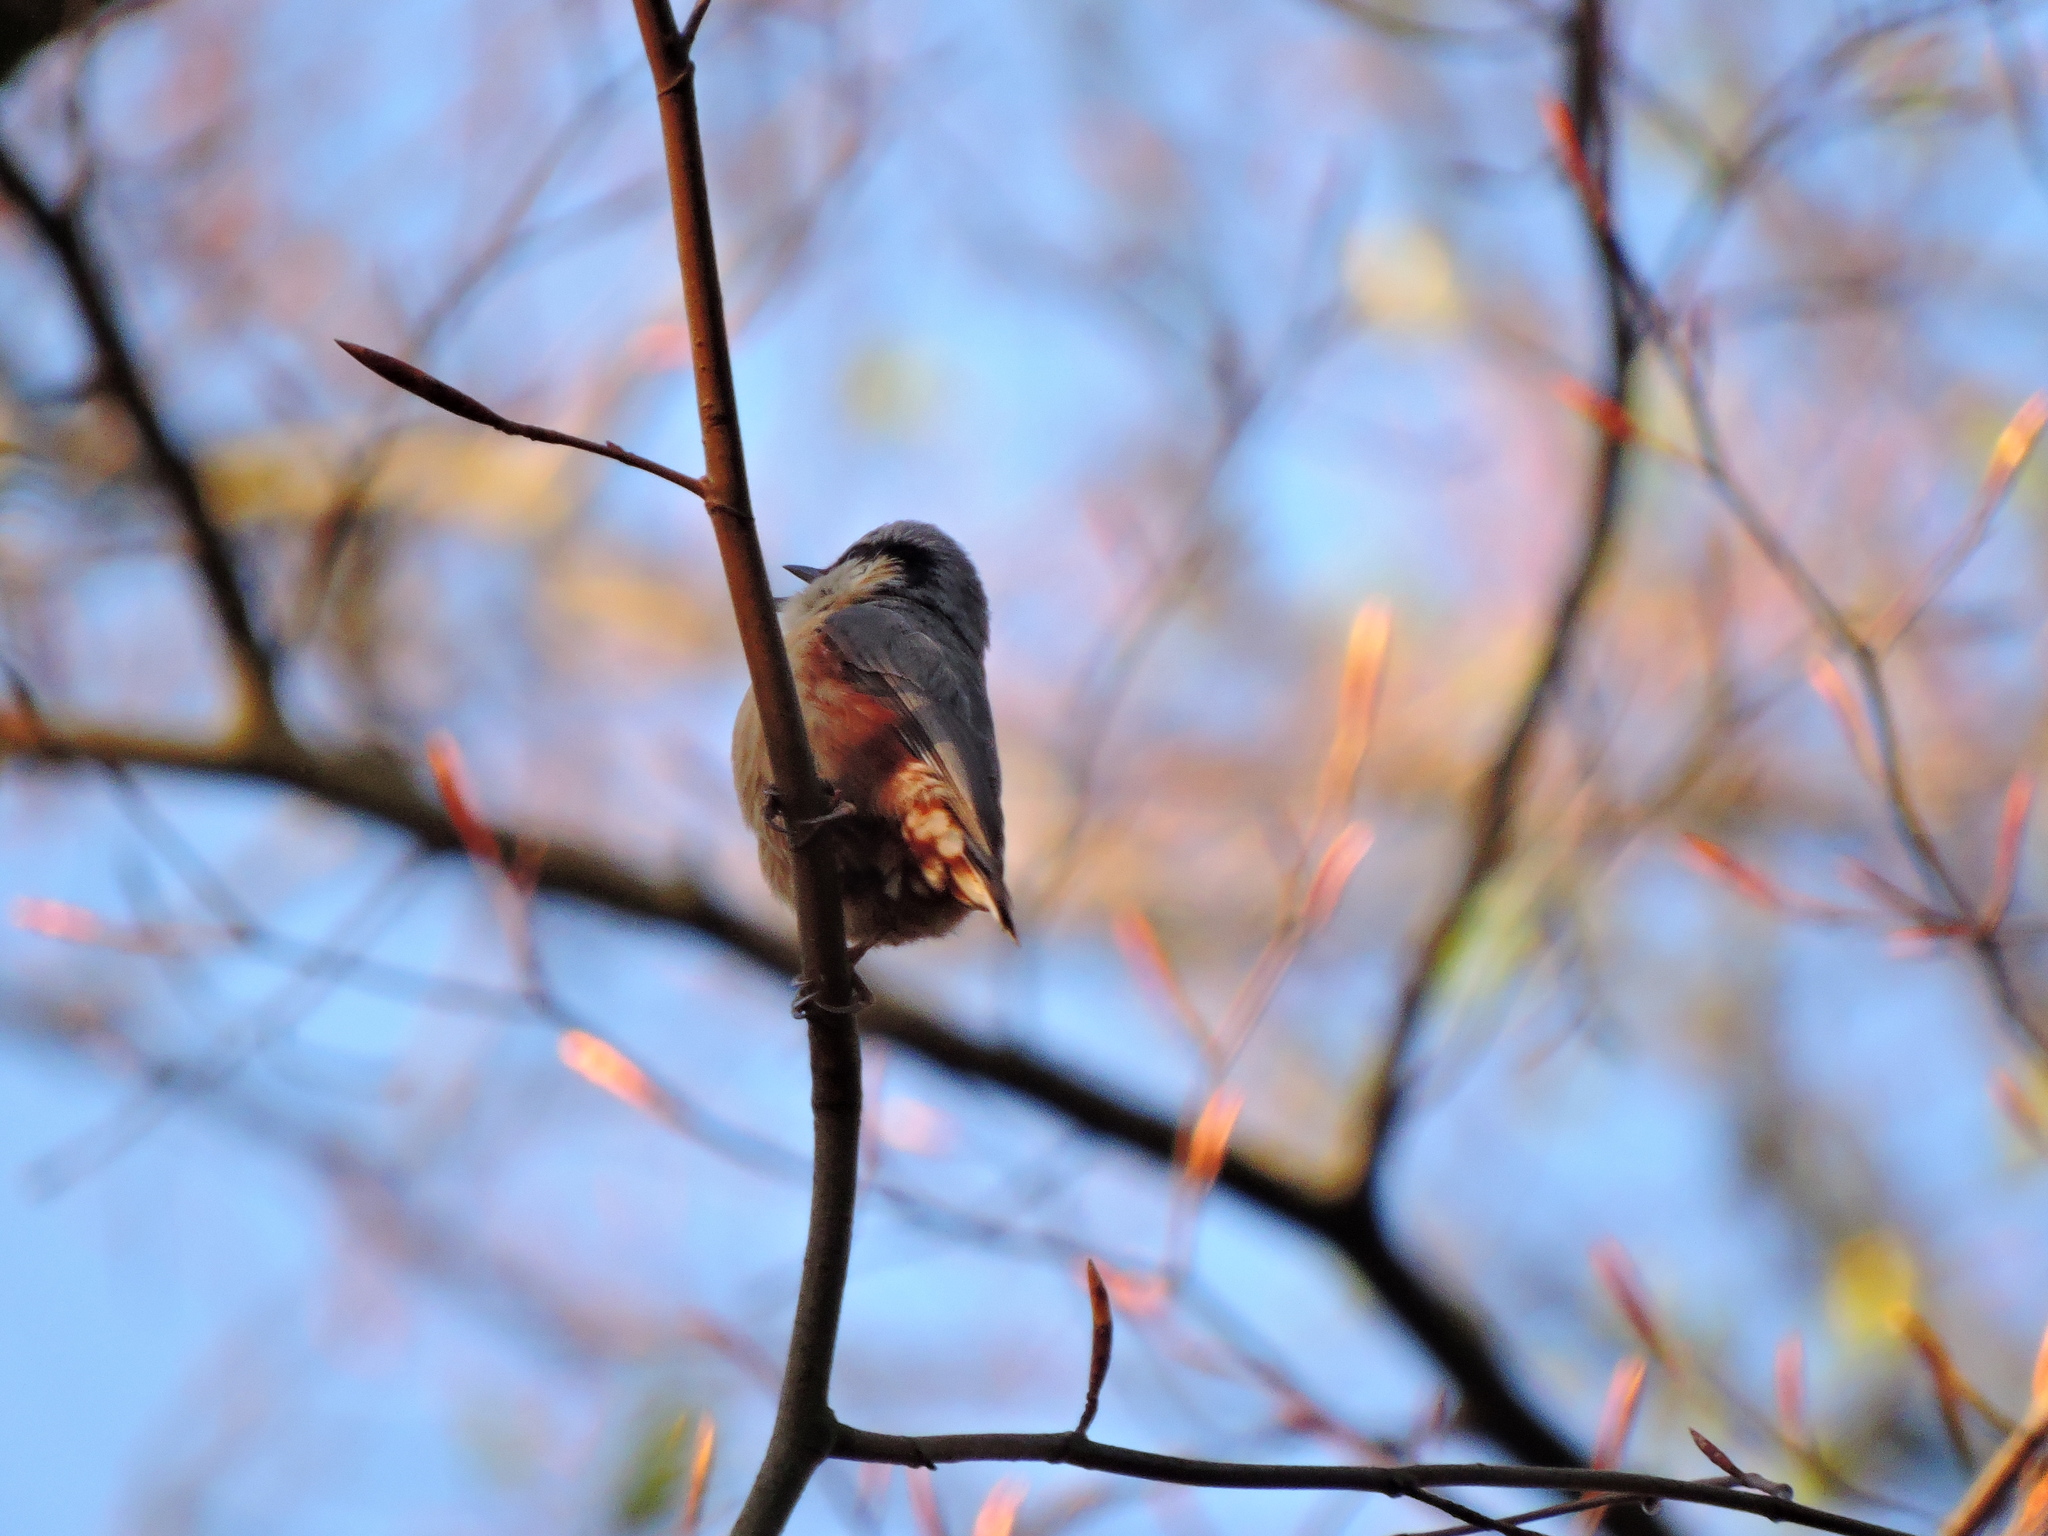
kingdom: Animalia
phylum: Chordata
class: Aves
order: Passeriformes
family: Sittidae
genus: Sitta
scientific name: Sitta europaea
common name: Eurasian nuthatch
